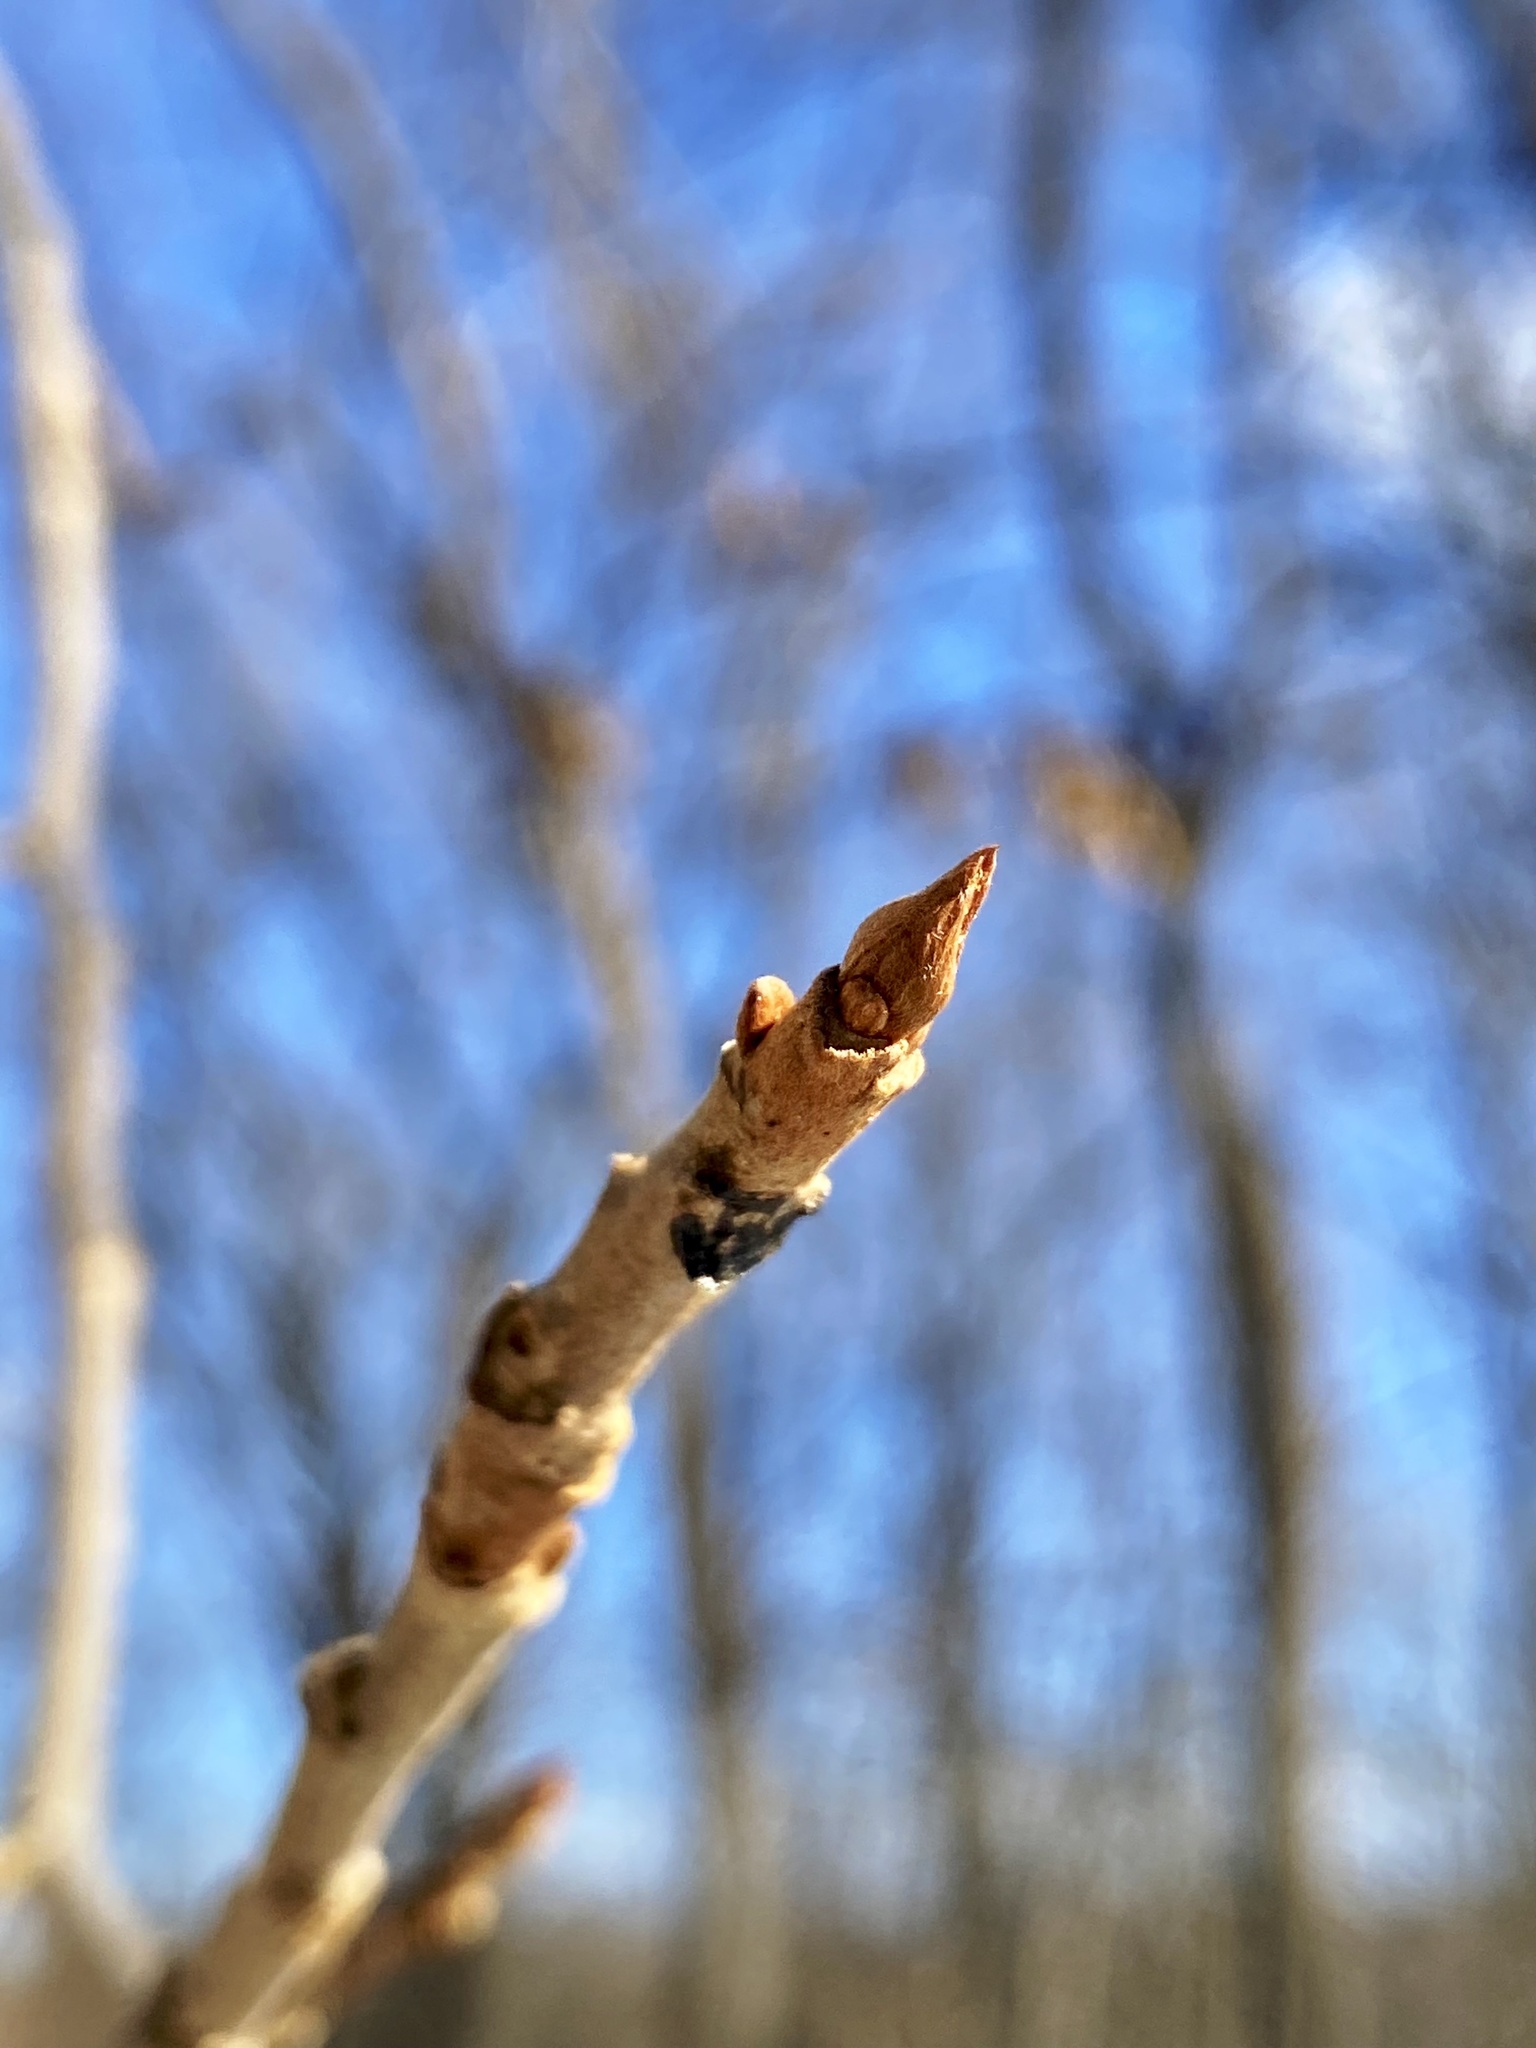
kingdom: Plantae
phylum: Tracheophyta
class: Magnoliopsida
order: Sapindales
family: Anacardiaceae
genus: Toxicodendron
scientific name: Toxicodendron radicans
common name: Poison ivy
